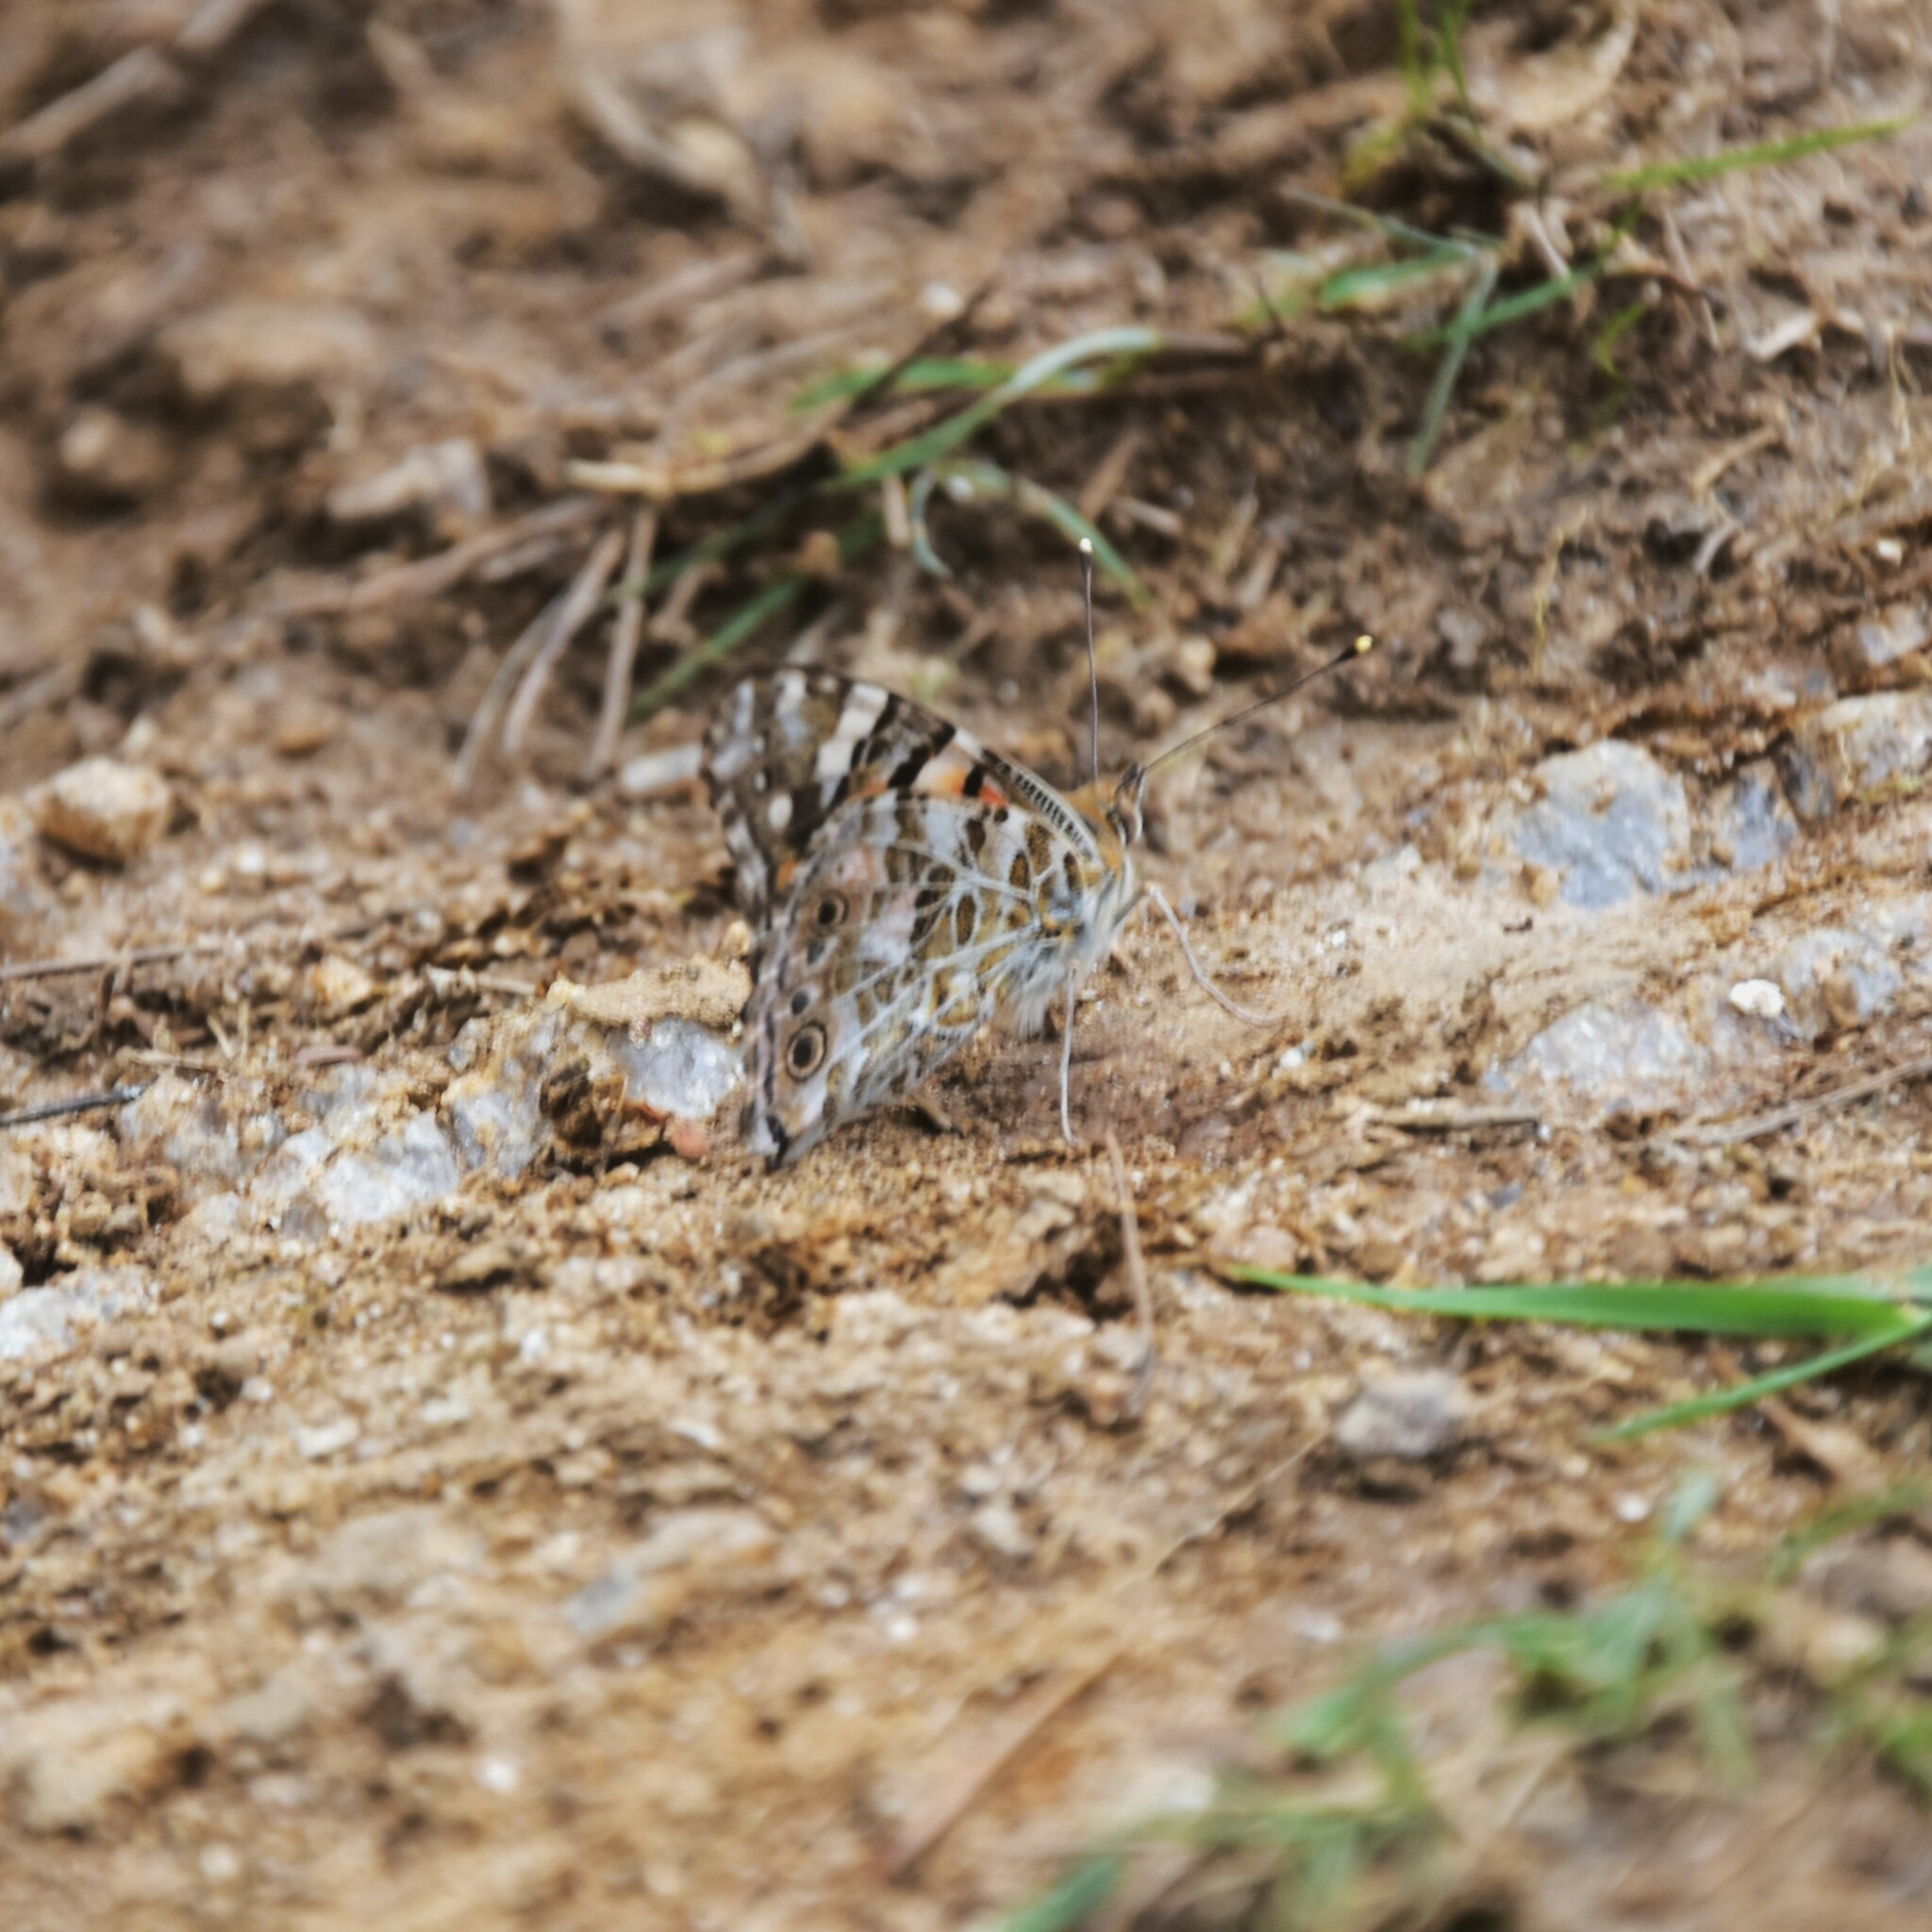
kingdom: Animalia
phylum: Arthropoda
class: Insecta
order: Lepidoptera
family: Nymphalidae
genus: Vanessa
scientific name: Vanessa cardui
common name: Painted lady
